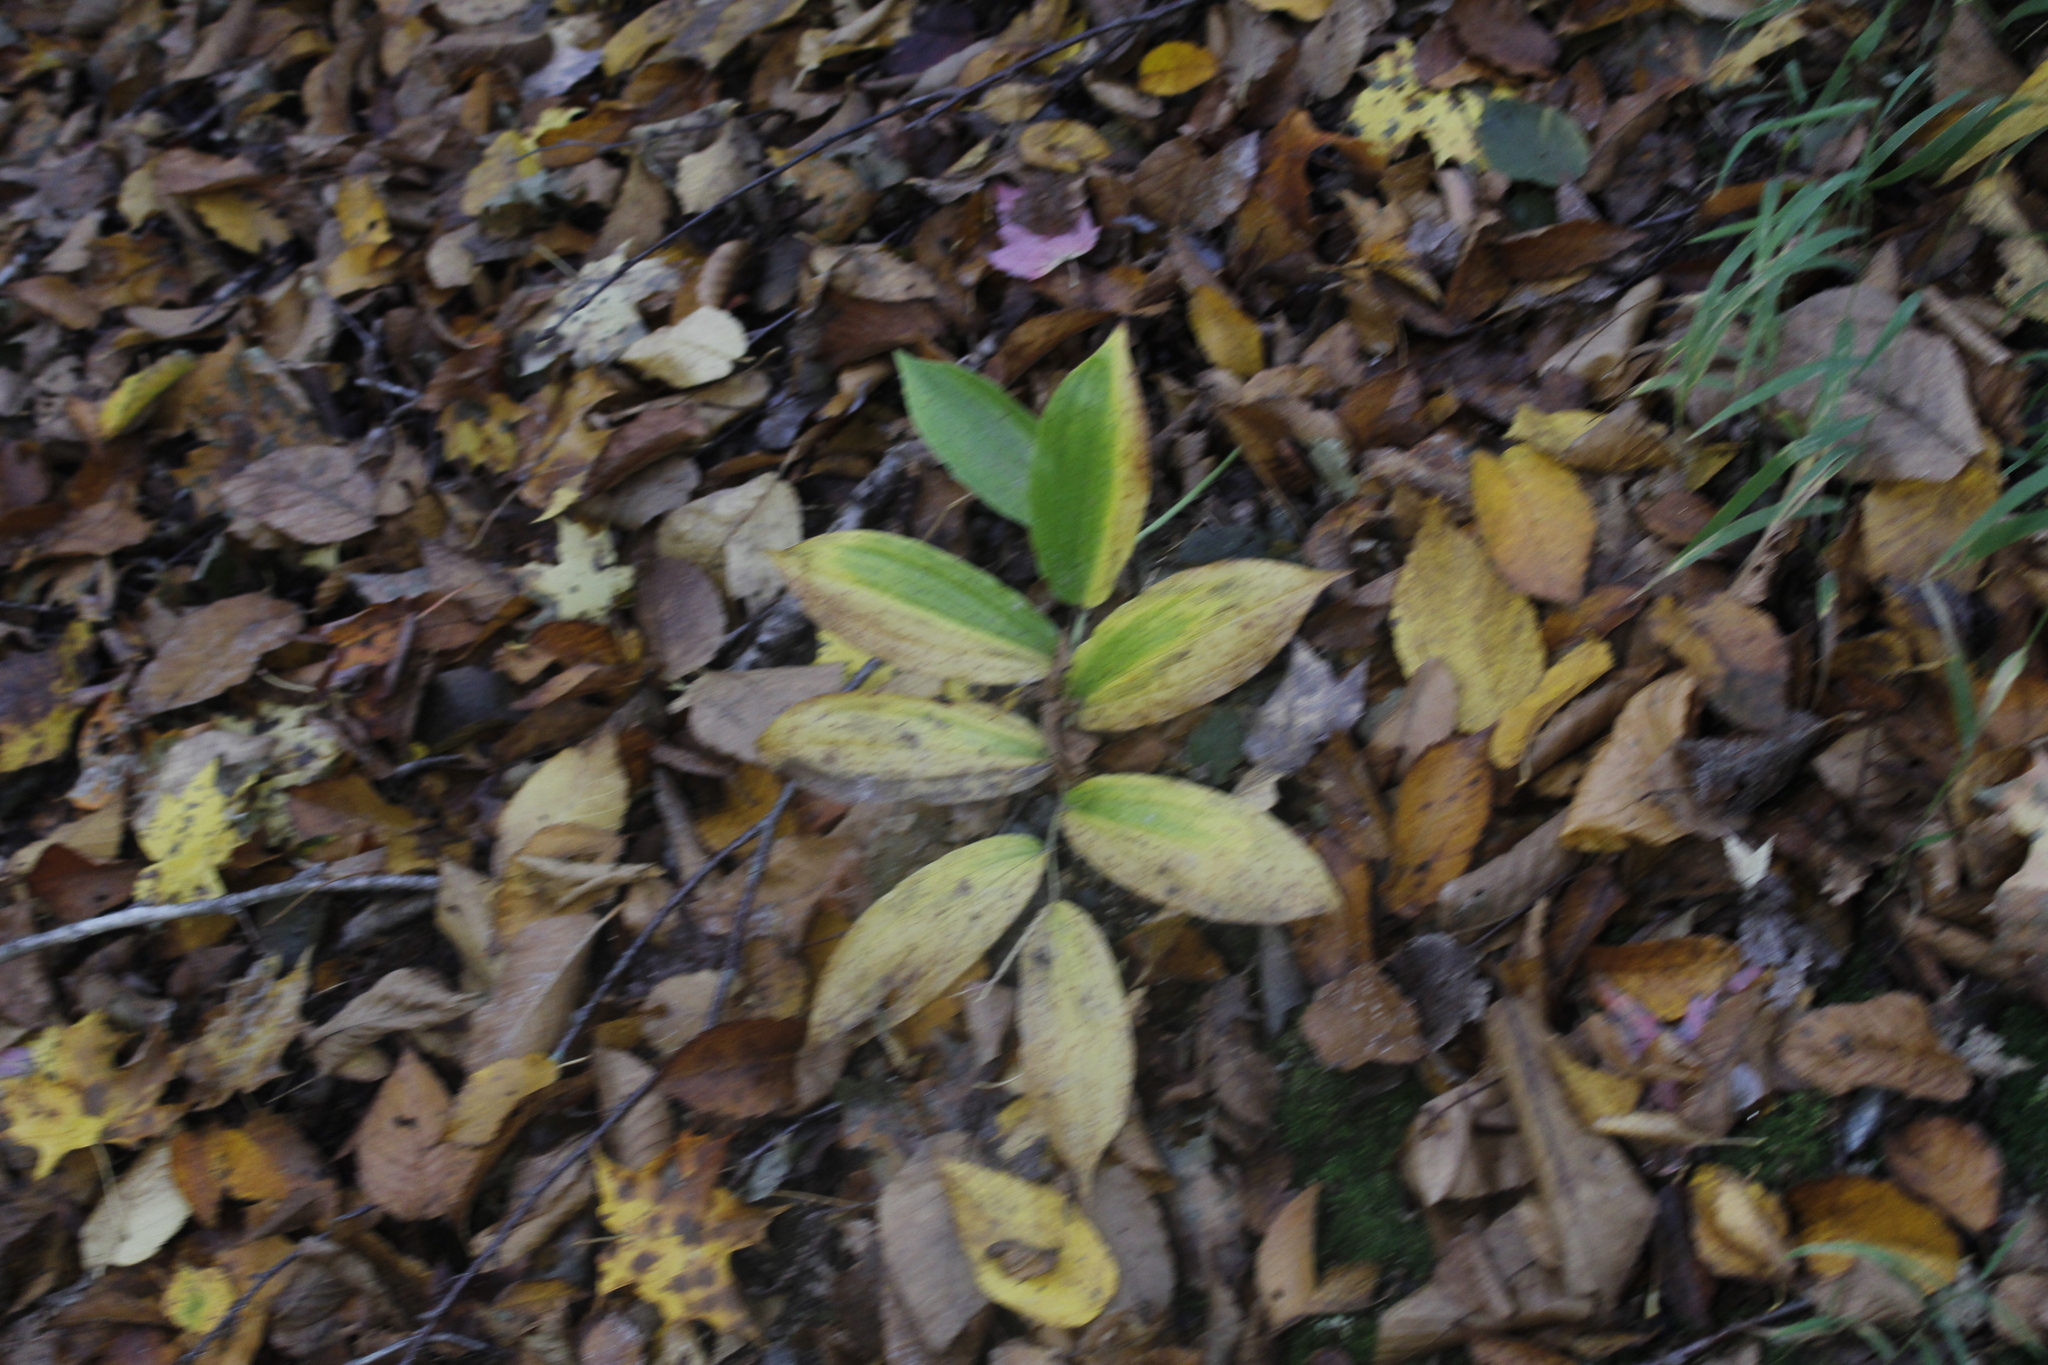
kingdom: Plantae
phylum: Tracheophyta
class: Liliopsida
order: Asparagales
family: Asparagaceae
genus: Maianthemum
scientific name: Maianthemum racemosum
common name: False spikenard
